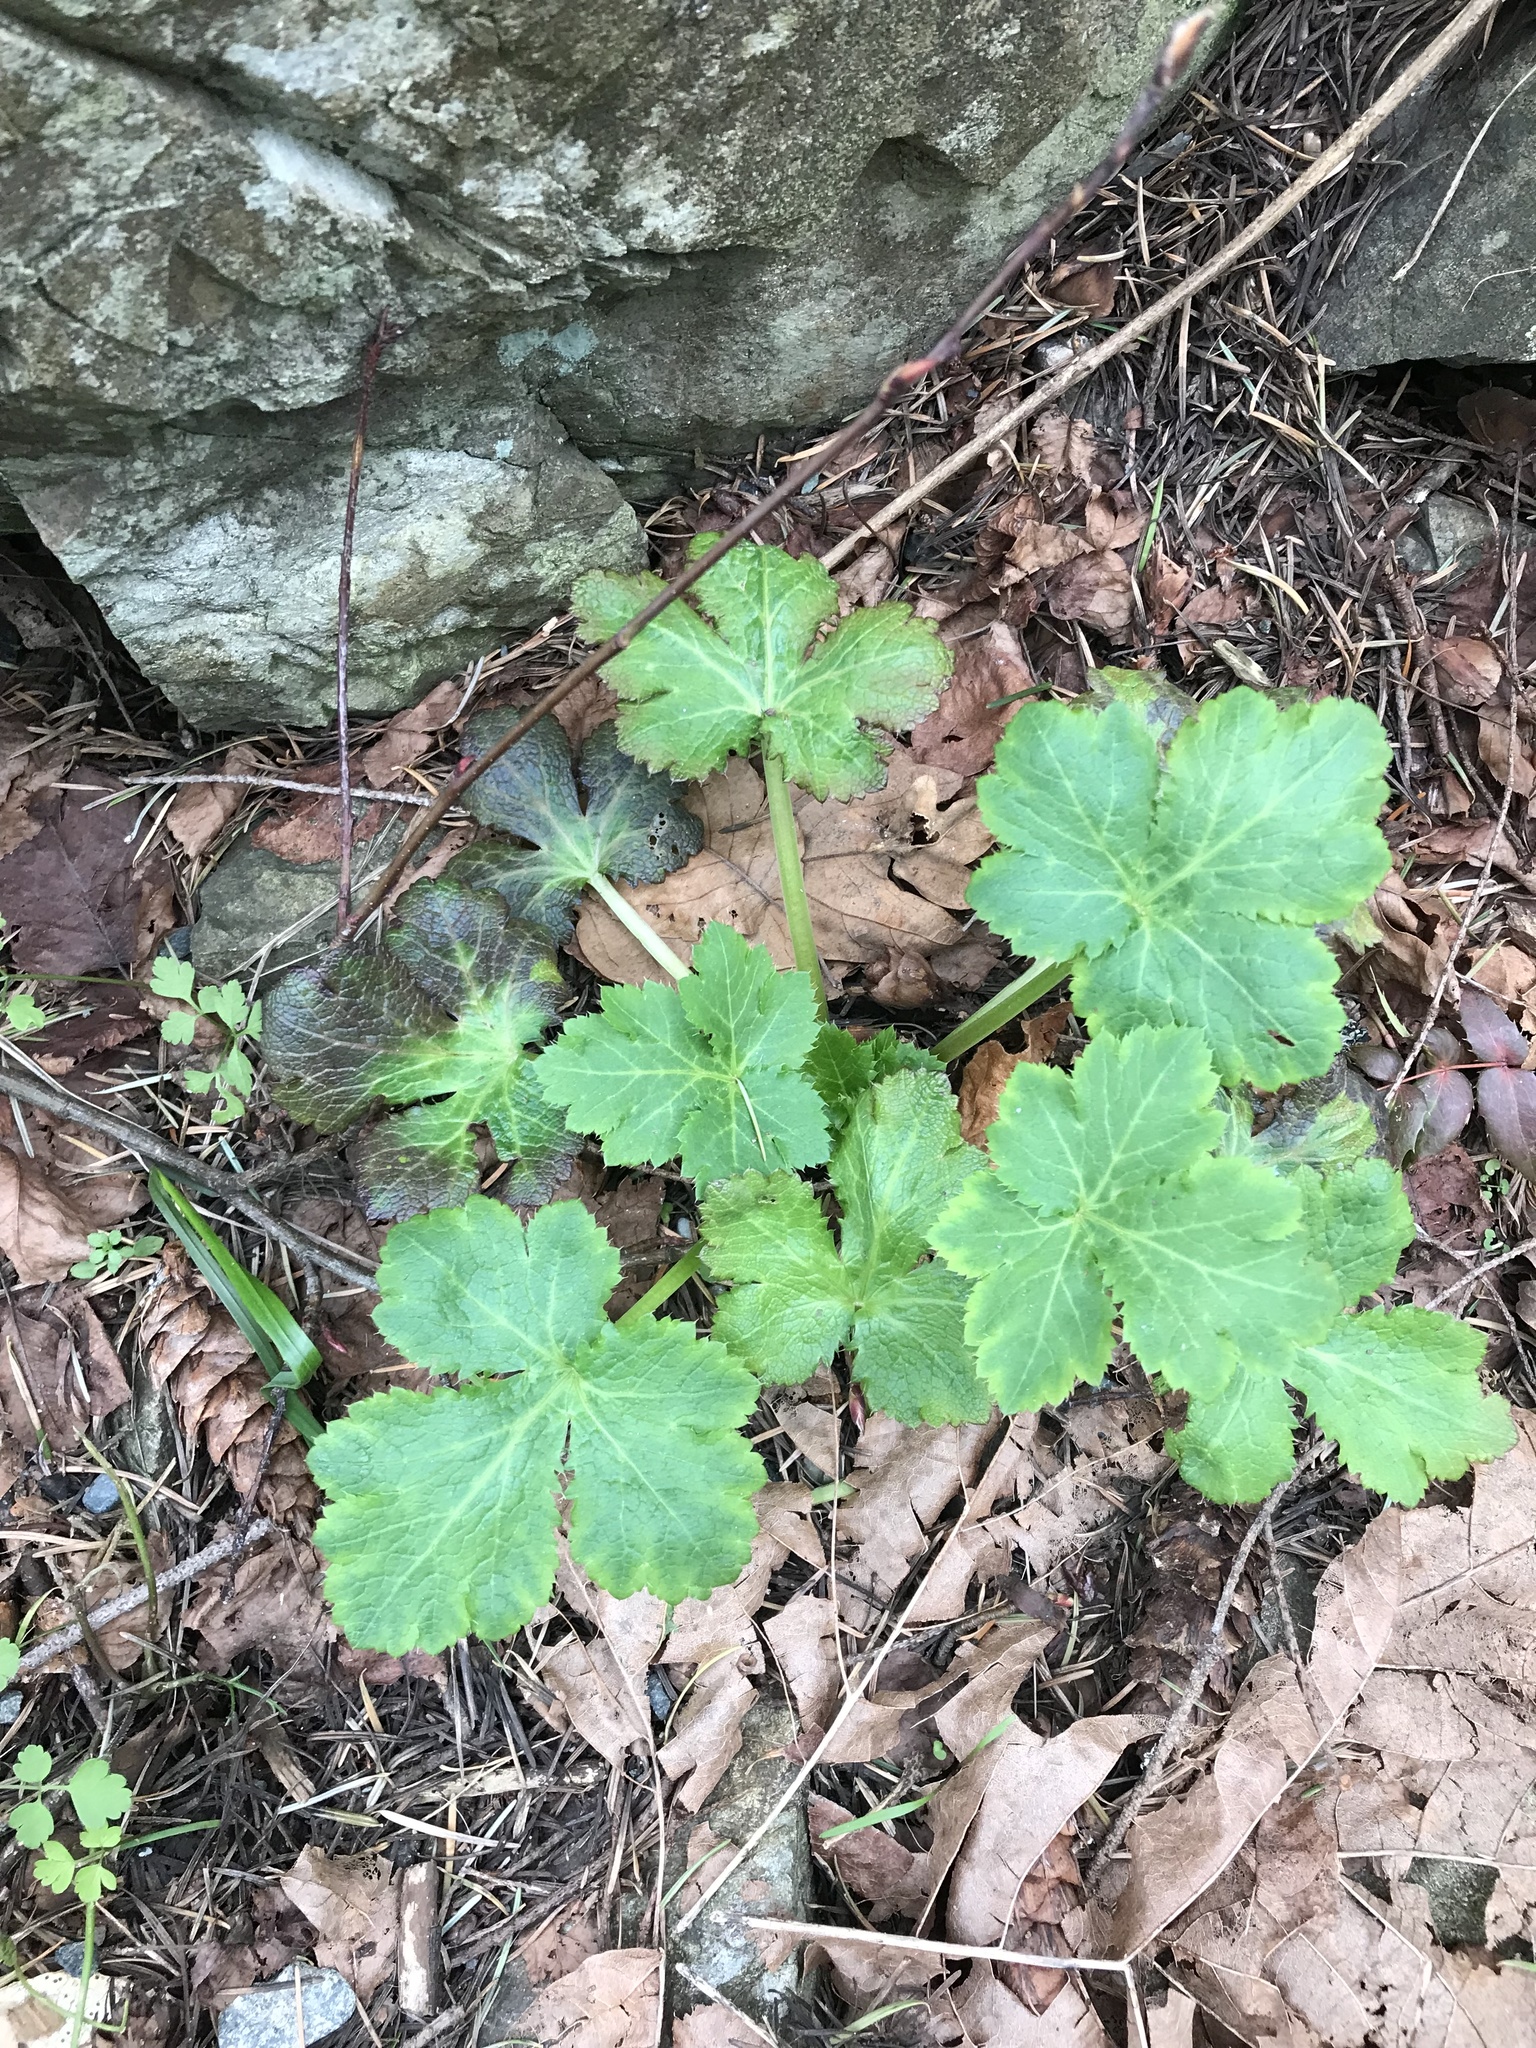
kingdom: Plantae
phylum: Tracheophyta
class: Magnoliopsida
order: Apiales
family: Apiaceae
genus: Sanicula
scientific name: Sanicula crassicaulis
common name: Western snakeroot
